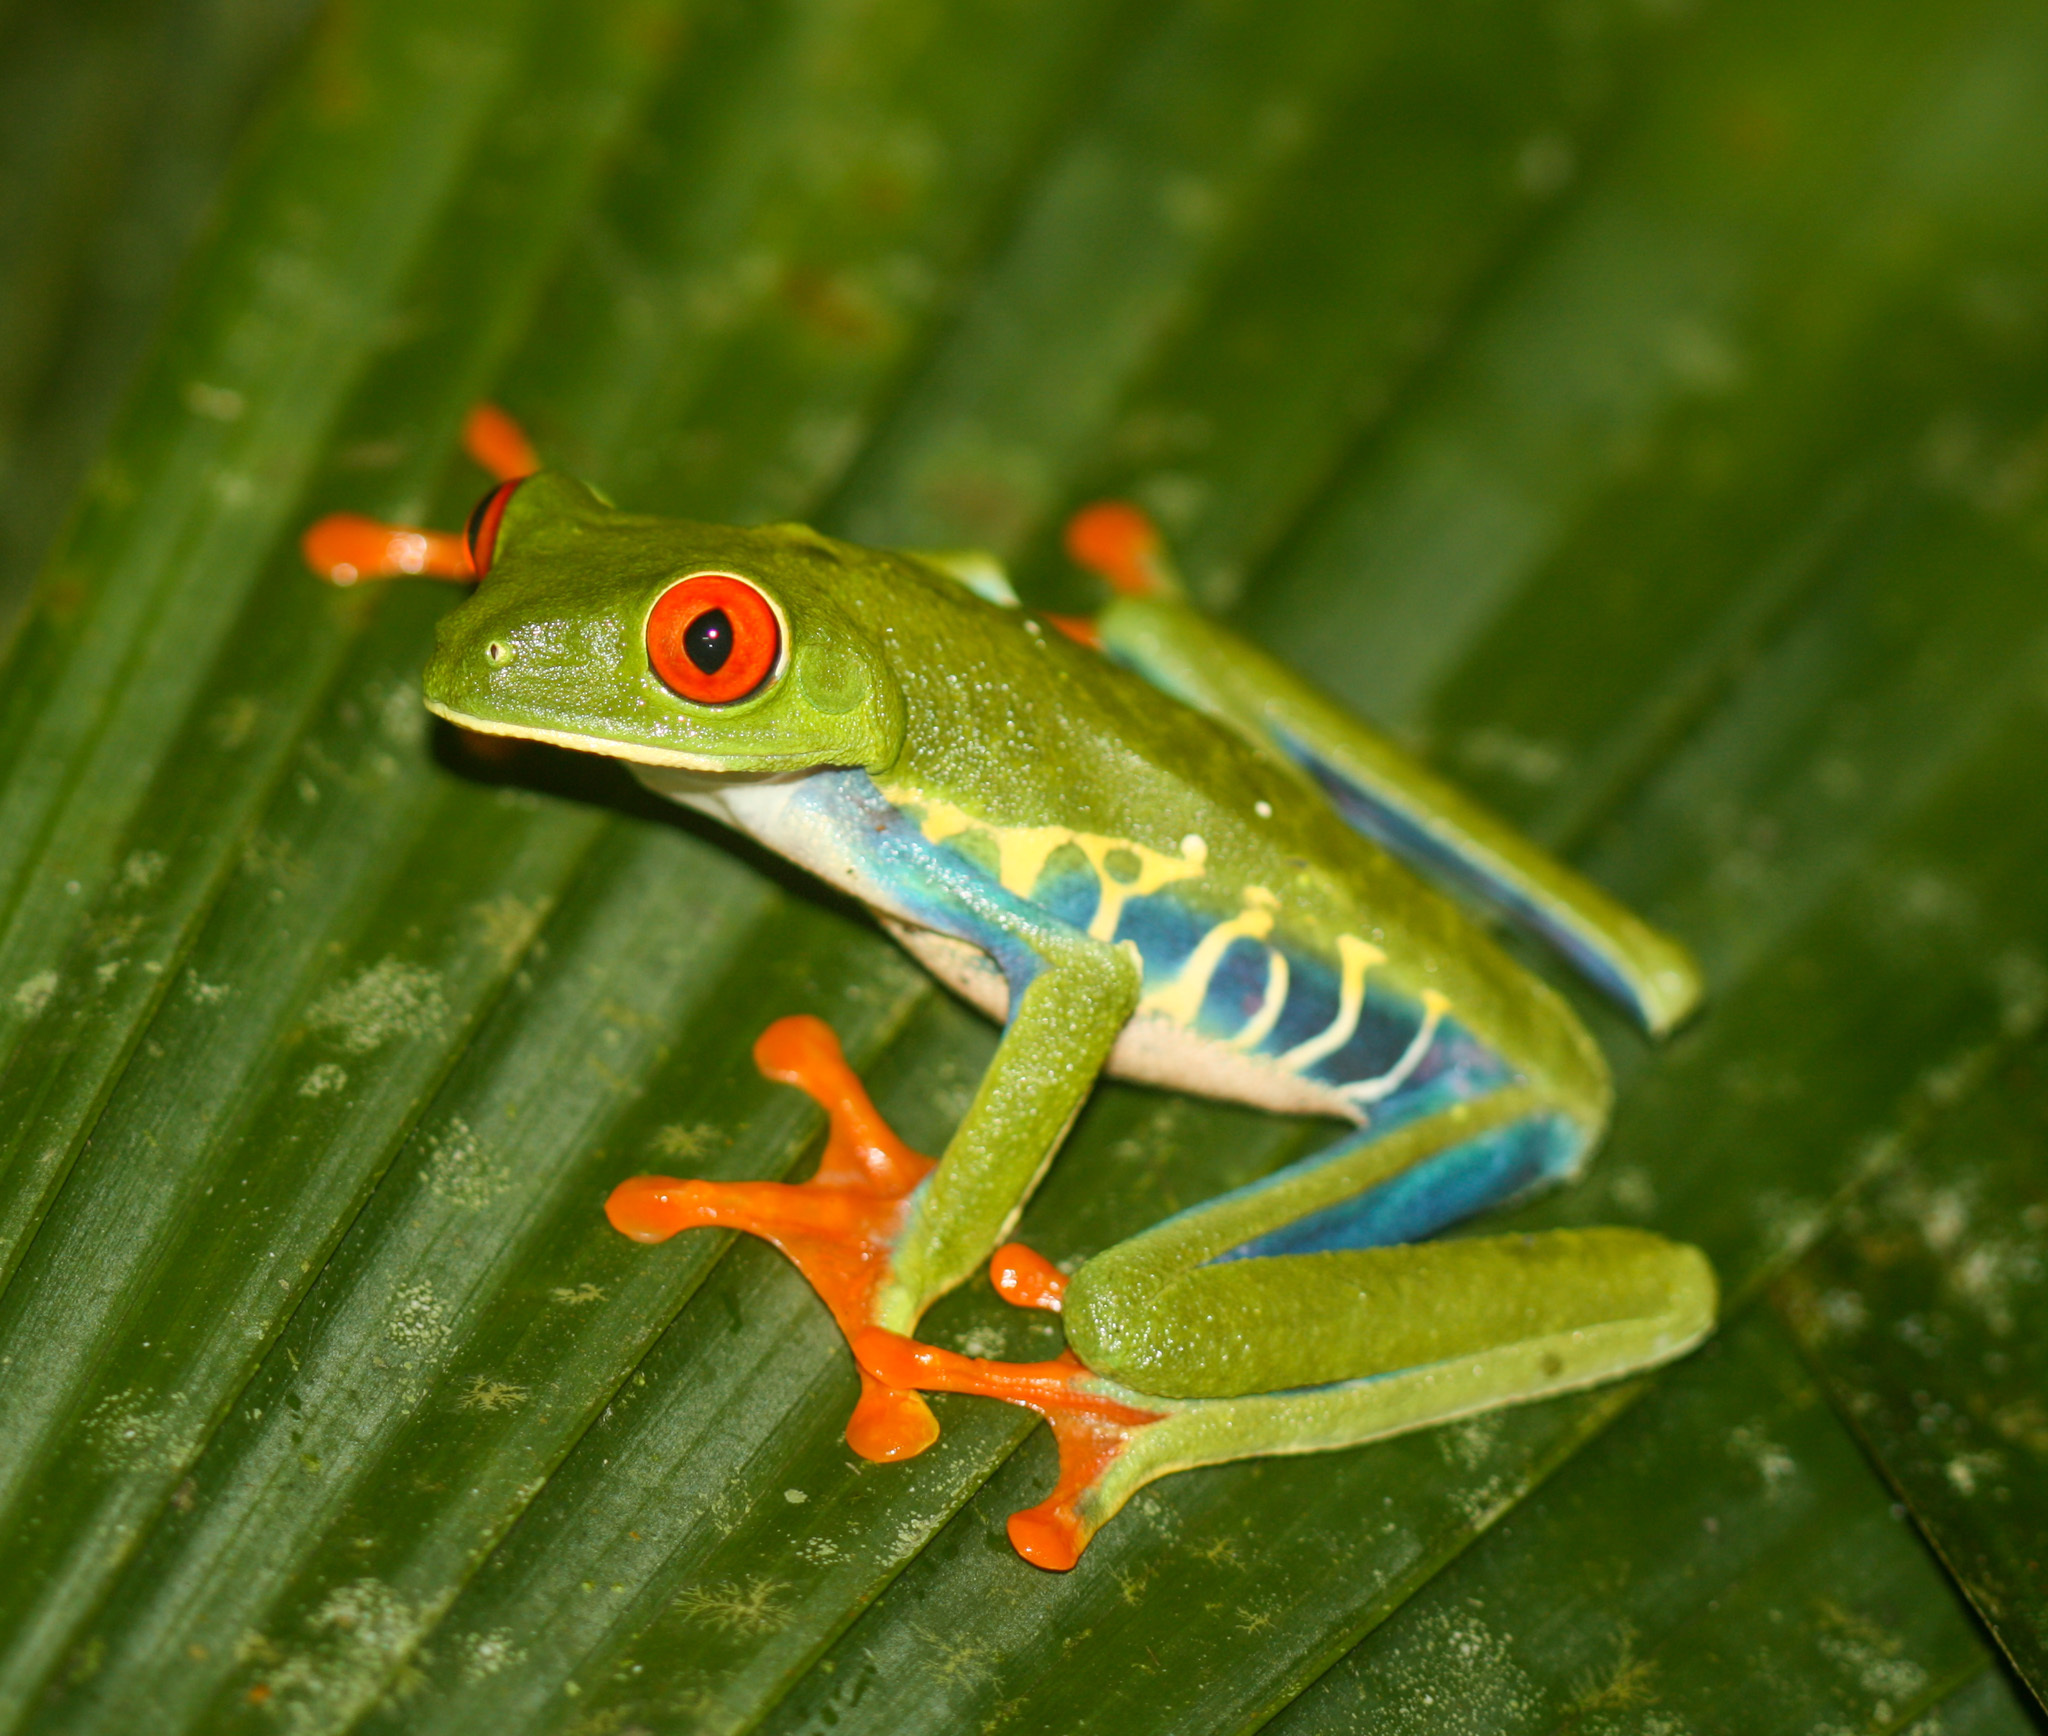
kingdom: Animalia
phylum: Chordata
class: Amphibia
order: Anura
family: Phyllomedusidae
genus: Agalychnis
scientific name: Agalychnis callidryas
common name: Red-eyed treefrog
